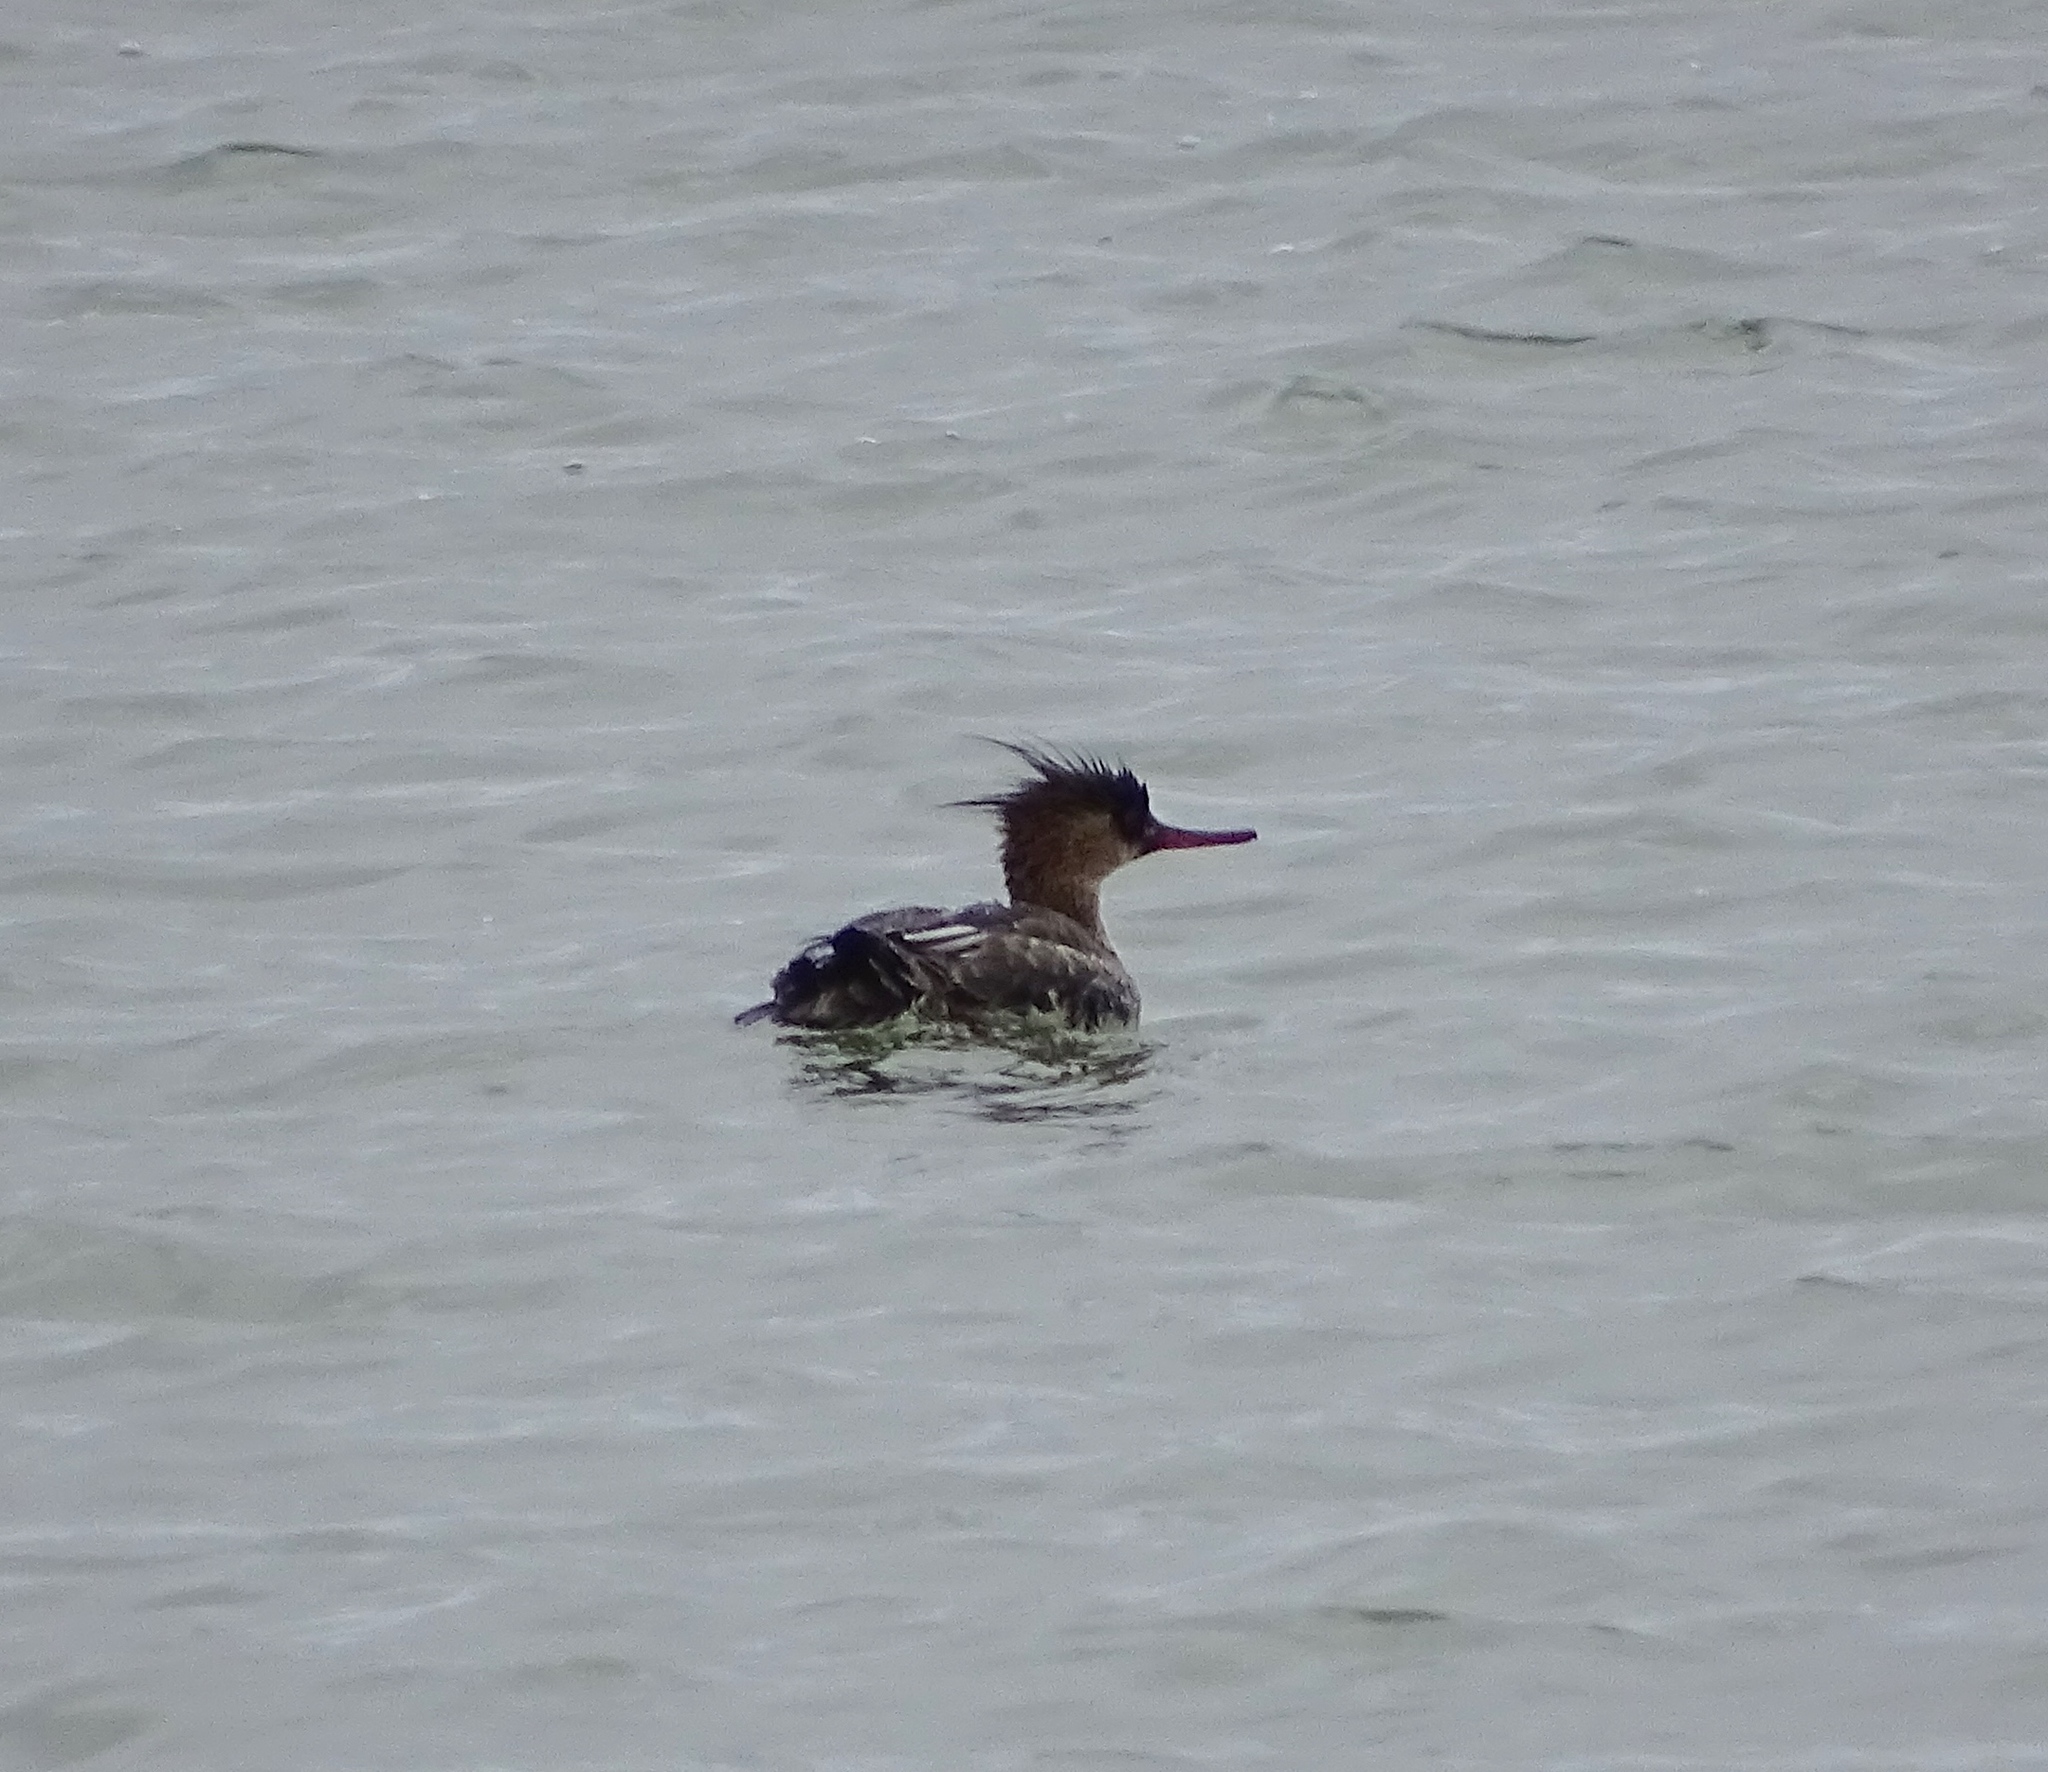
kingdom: Animalia
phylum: Chordata
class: Aves
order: Anseriformes
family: Anatidae
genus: Mergus
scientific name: Mergus serrator
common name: Red-breasted merganser
